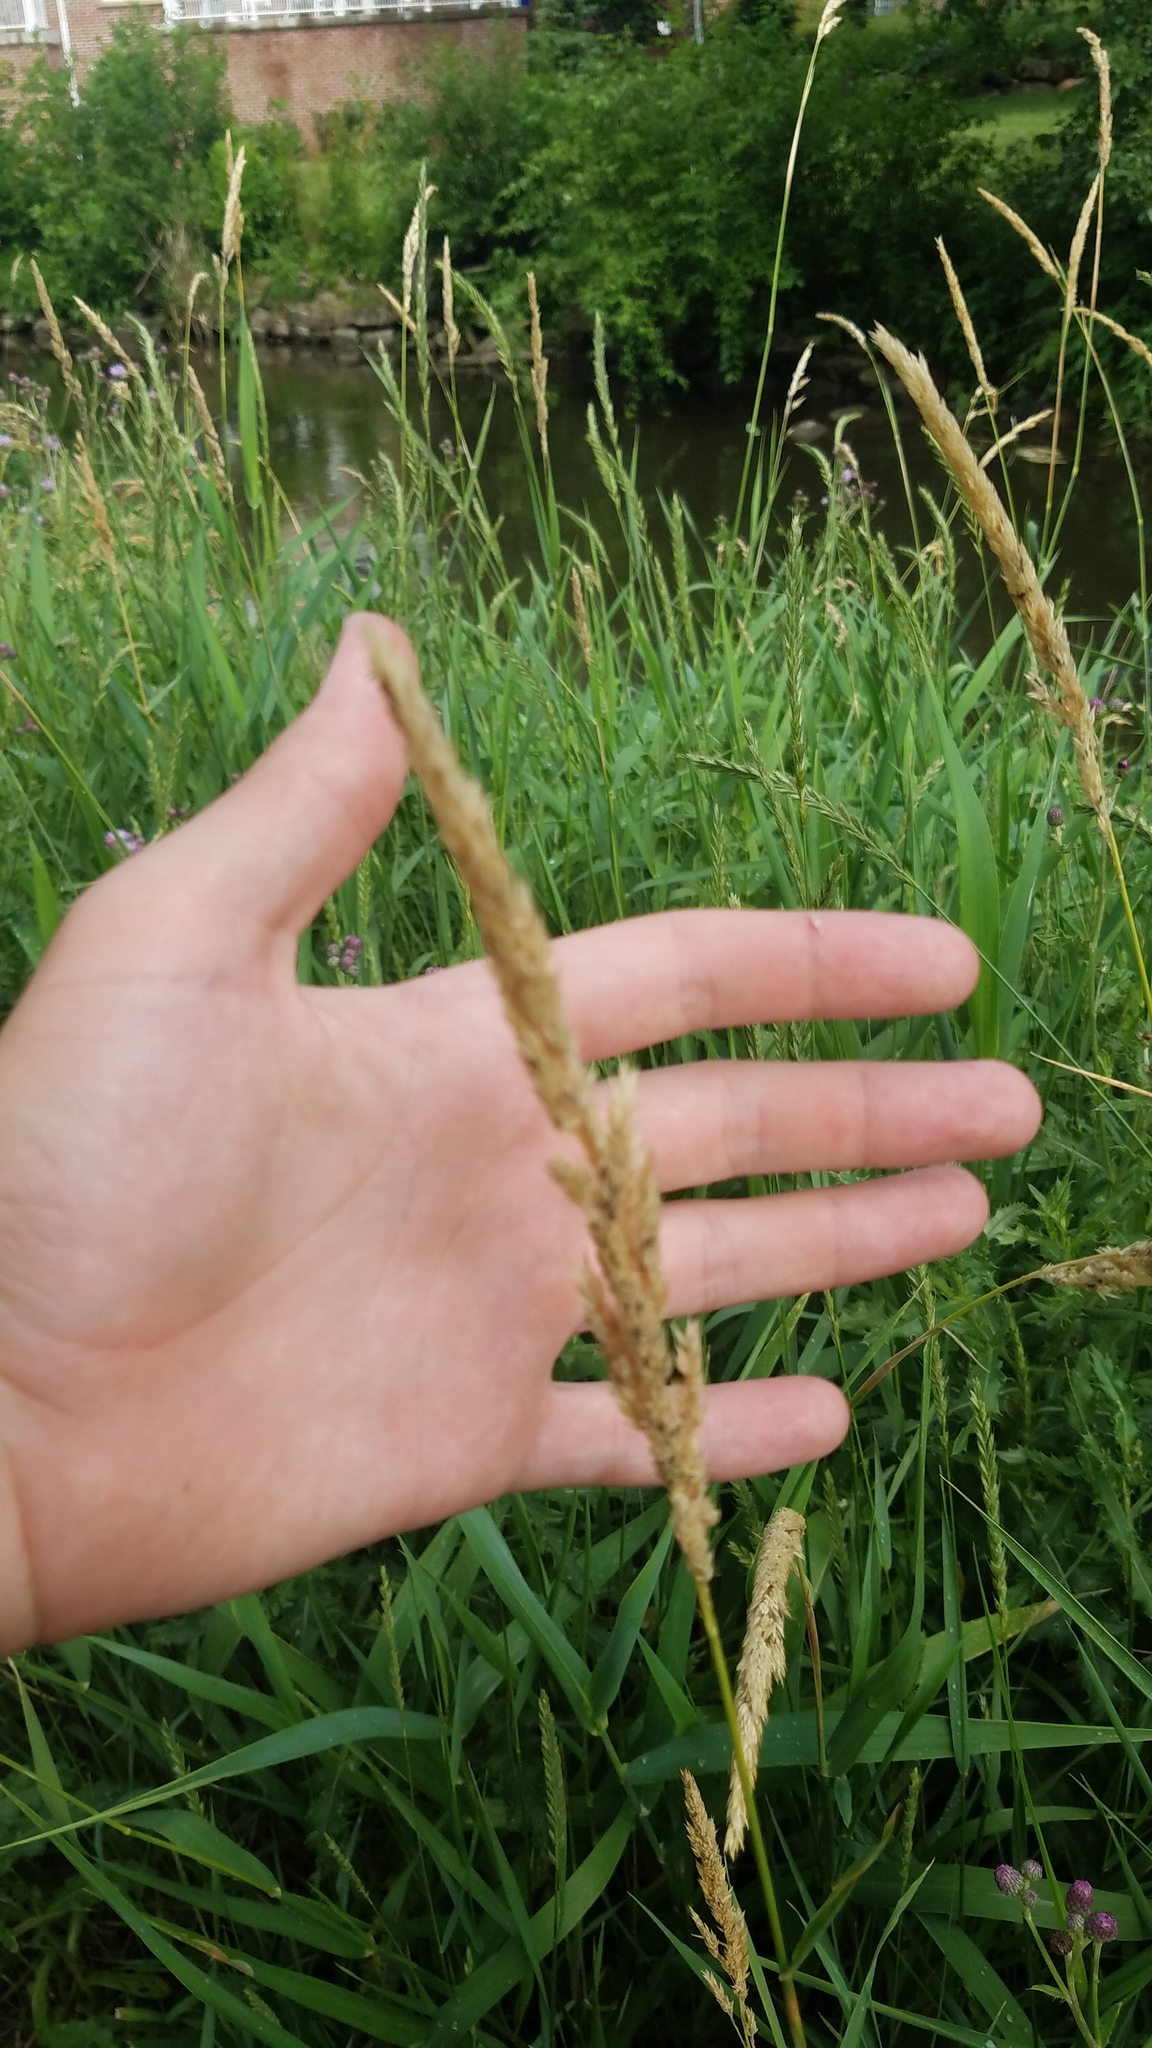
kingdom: Plantae
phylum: Tracheophyta
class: Liliopsida
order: Poales
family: Poaceae
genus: Phalaris
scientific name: Phalaris arundinacea
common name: Reed canary-grass
